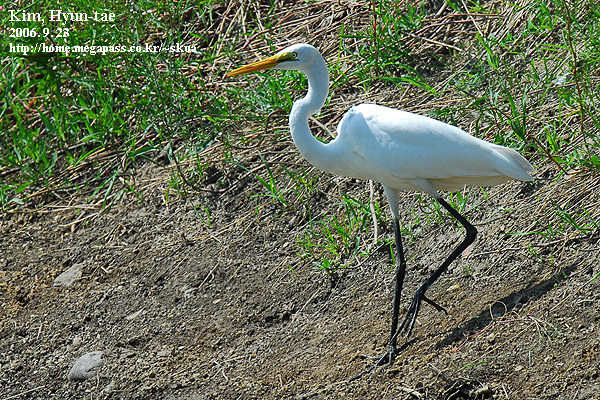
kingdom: Animalia
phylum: Chordata
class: Aves
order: Pelecaniformes
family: Ardeidae
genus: Ardea
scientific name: Ardea alba
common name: Great egret
